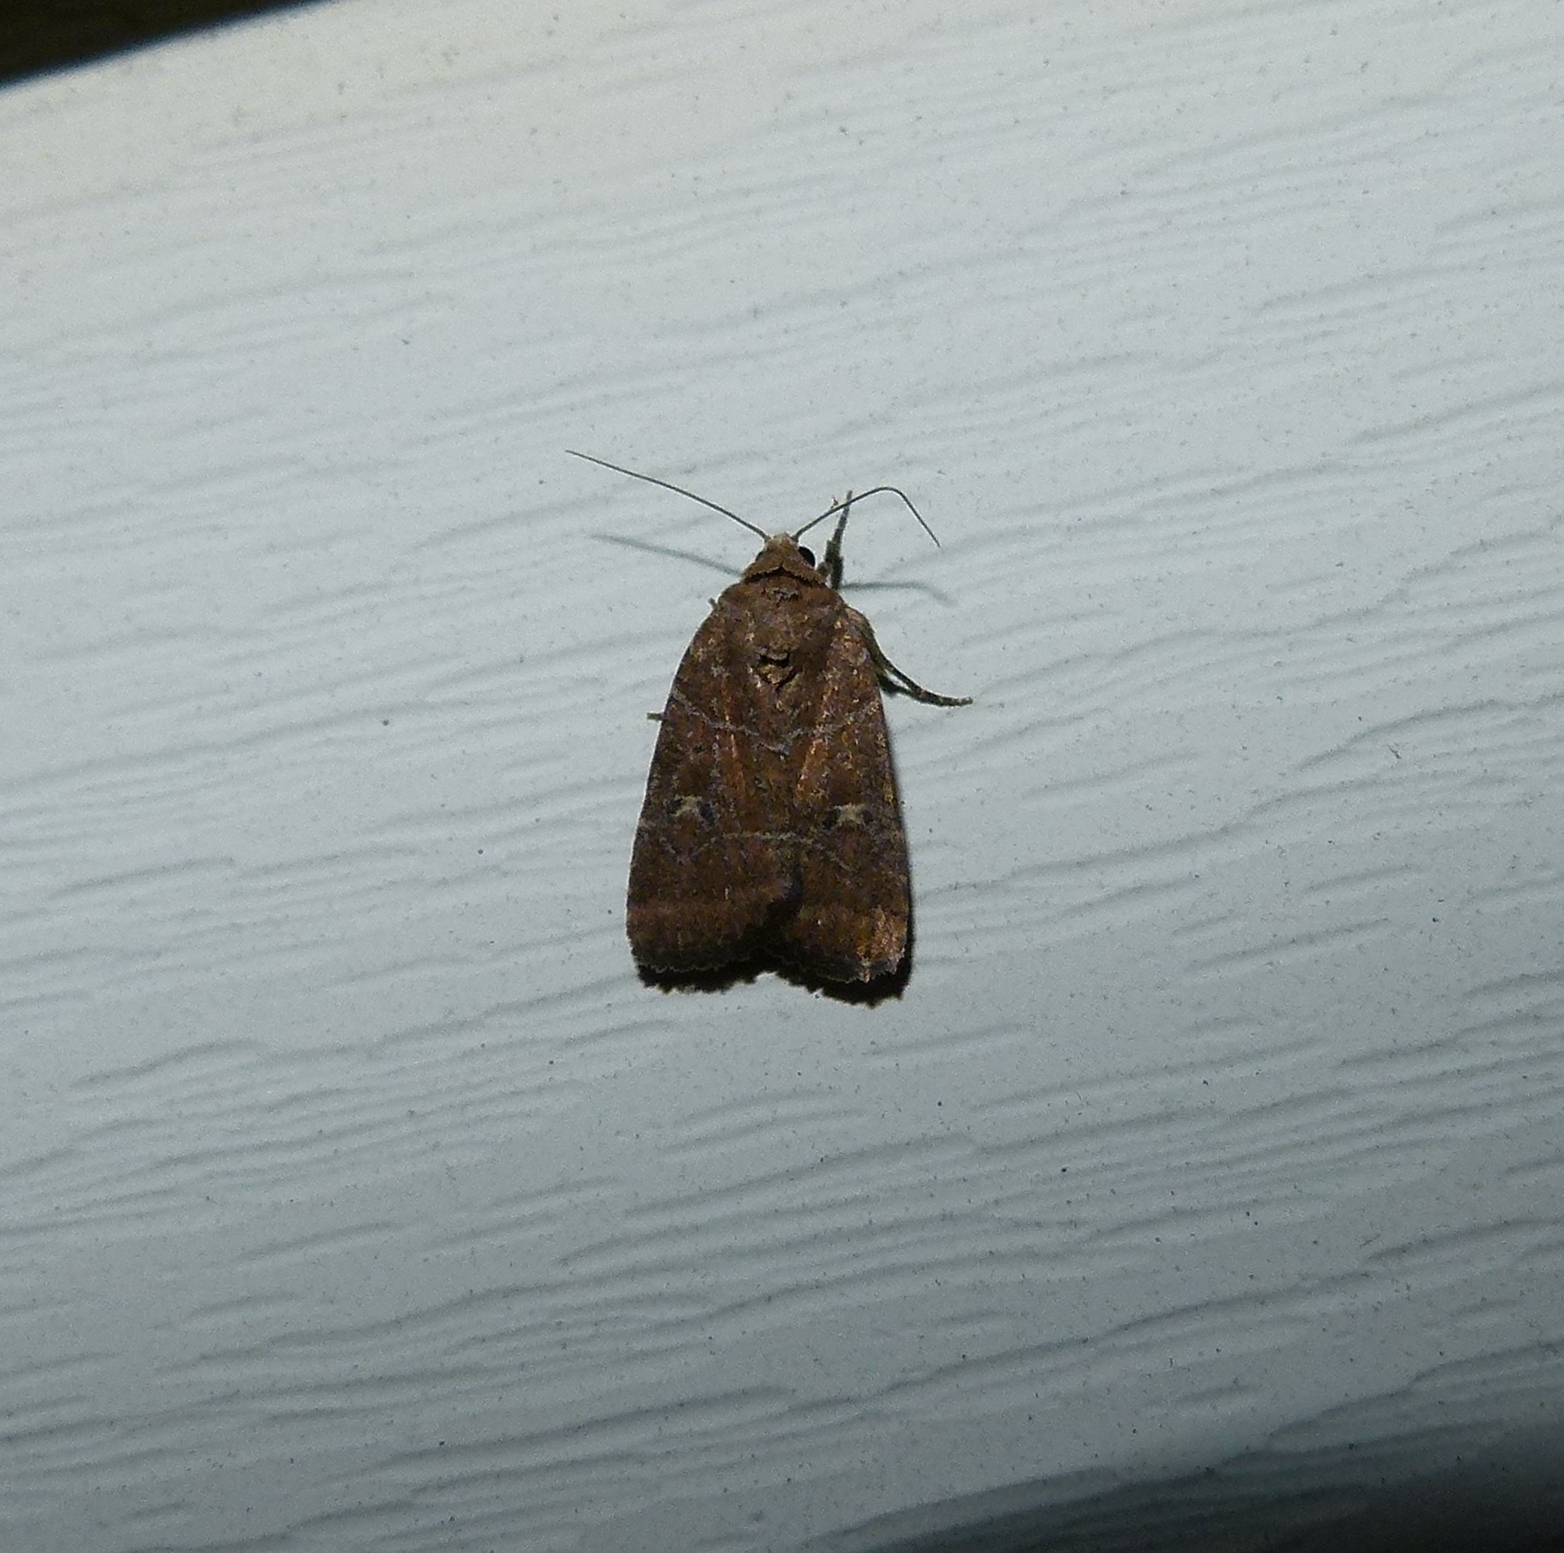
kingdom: Animalia
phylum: Arthropoda
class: Insecta
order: Lepidoptera
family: Noctuidae
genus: Elaphria
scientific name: Elaphria grata
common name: Grateful midget moth
